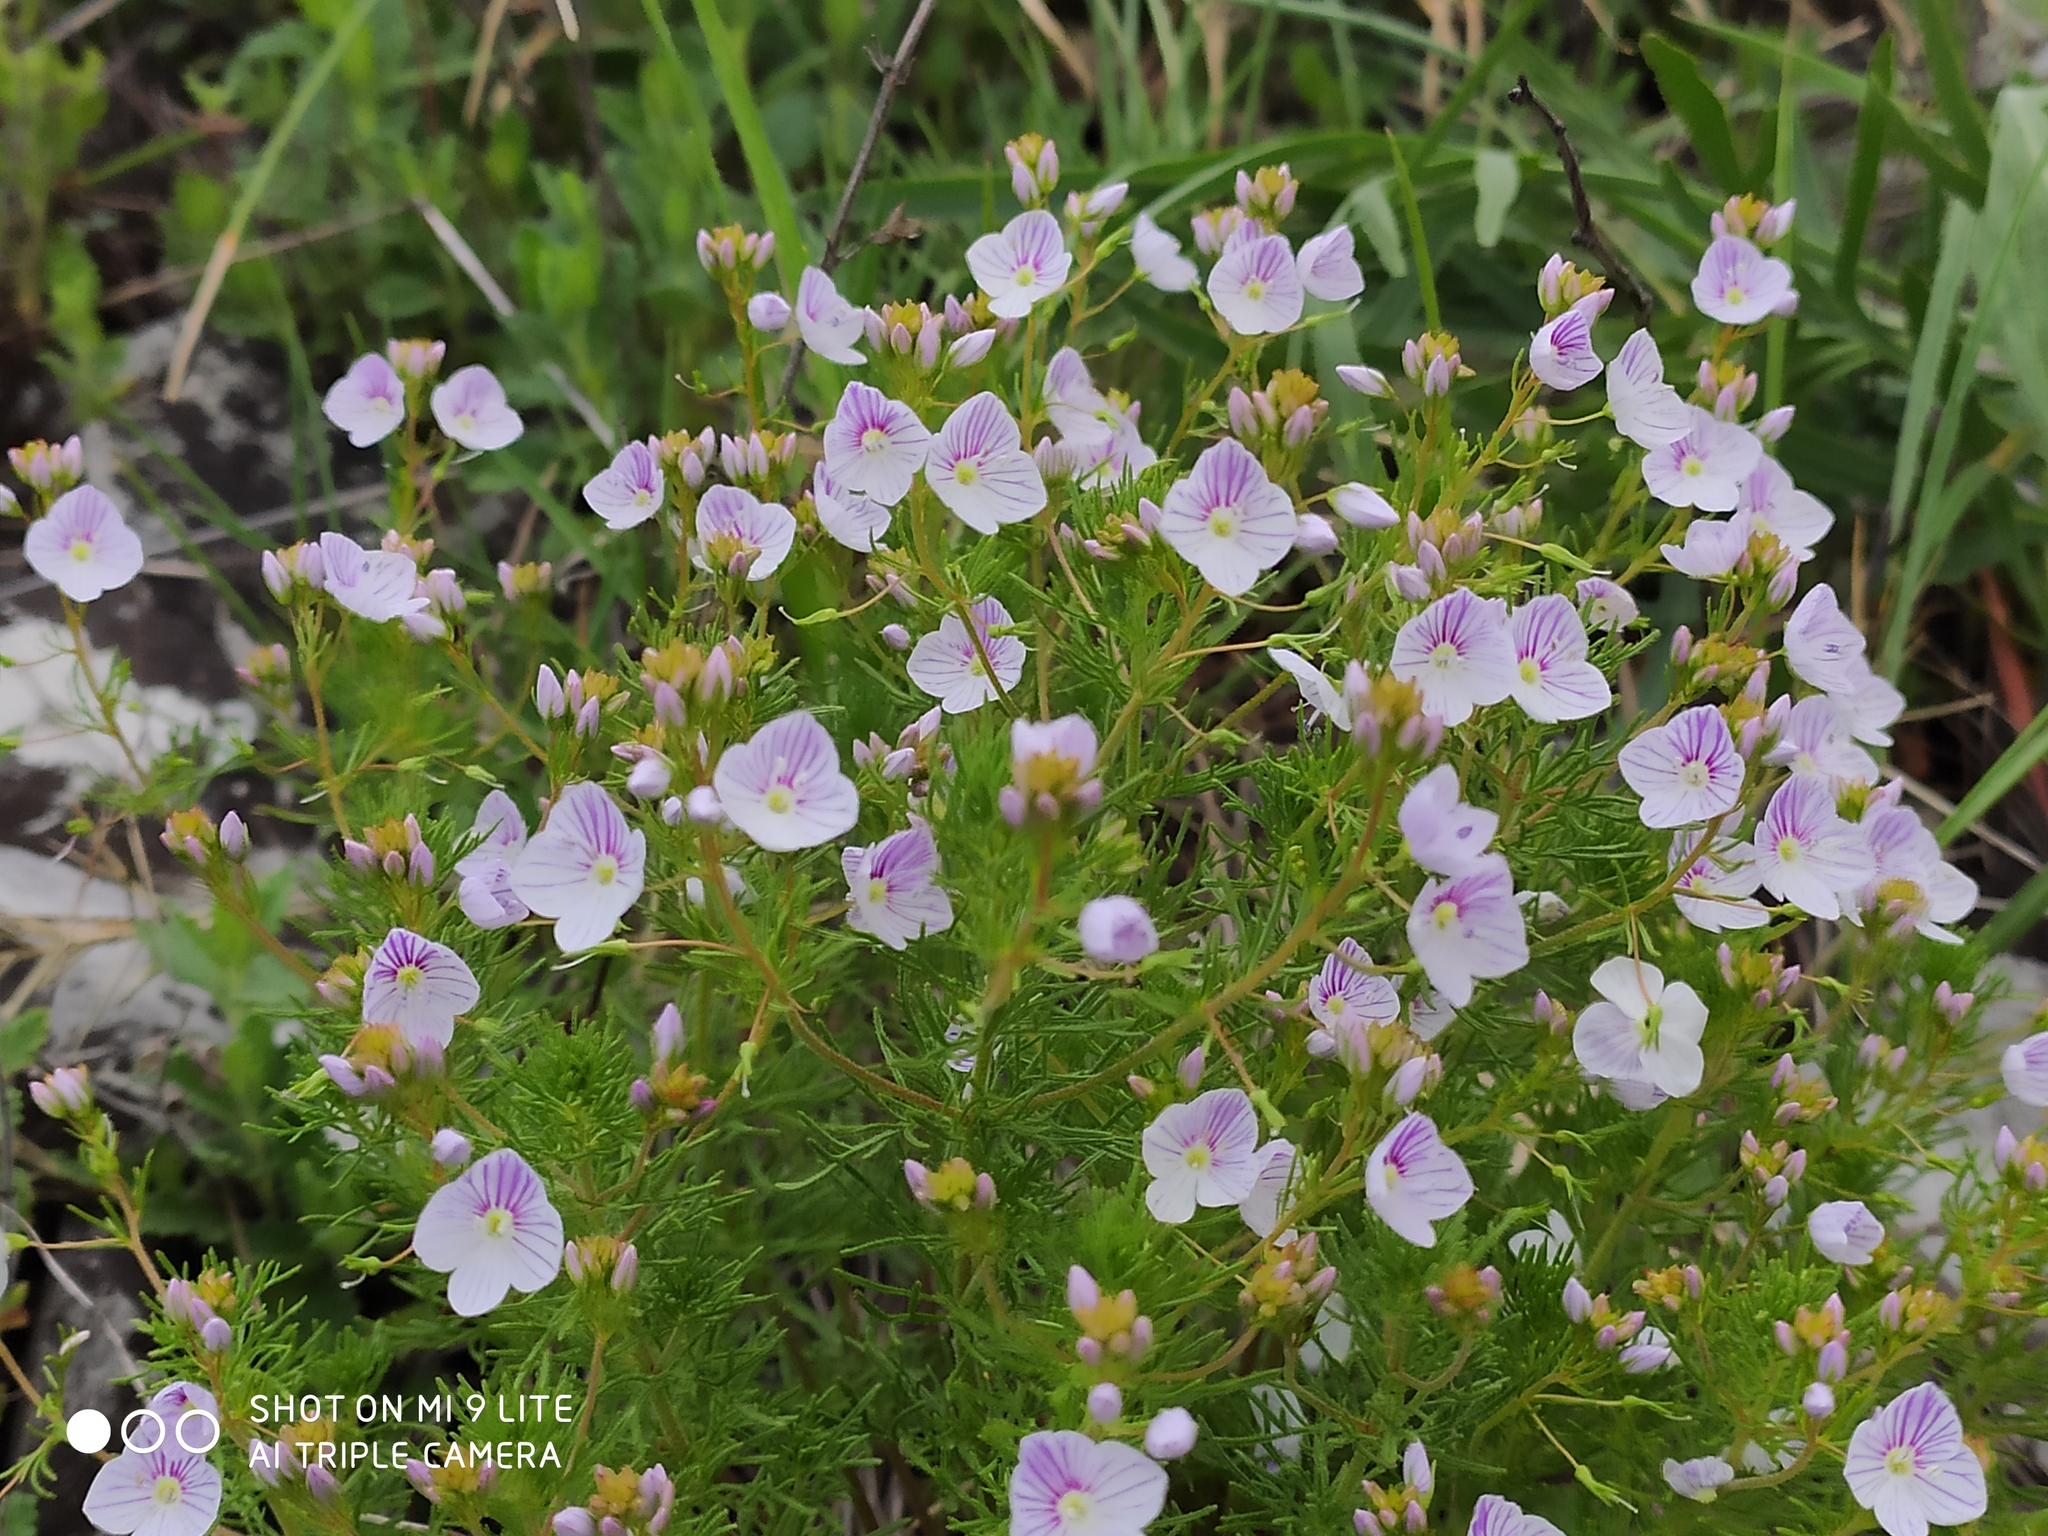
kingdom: Plantae
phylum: Tracheophyta
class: Magnoliopsida
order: Lamiales
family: Plantaginaceae
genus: Veronica
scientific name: Veronica filifolia
